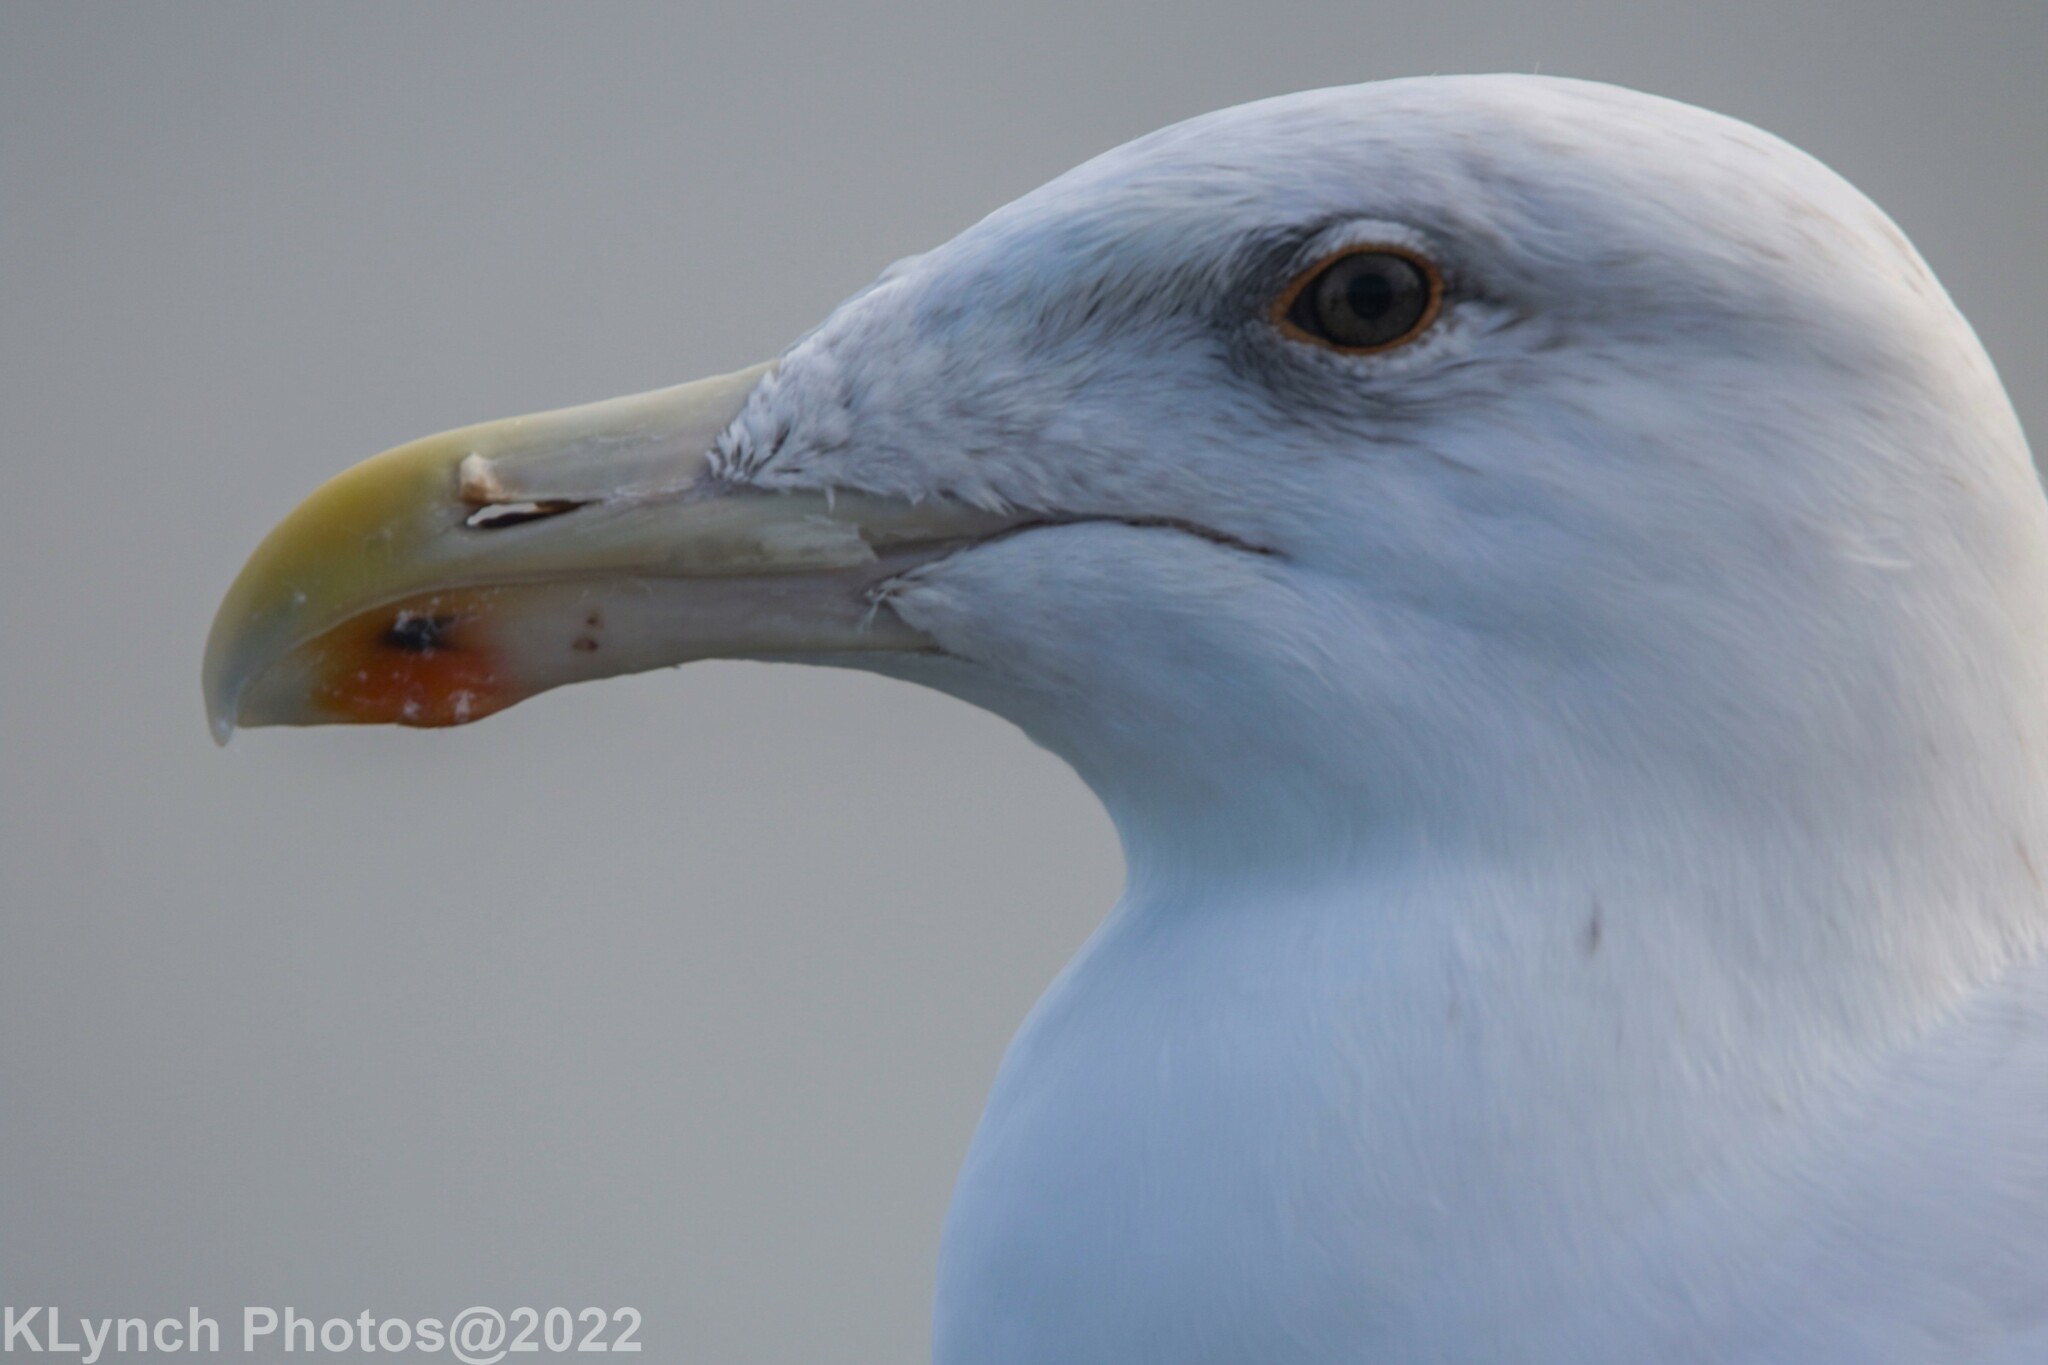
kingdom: Animalia
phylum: Chordata
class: Aves
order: Charadriiformes
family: Laridae
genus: Larus
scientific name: Larus marinus
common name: Great black-backed gull
